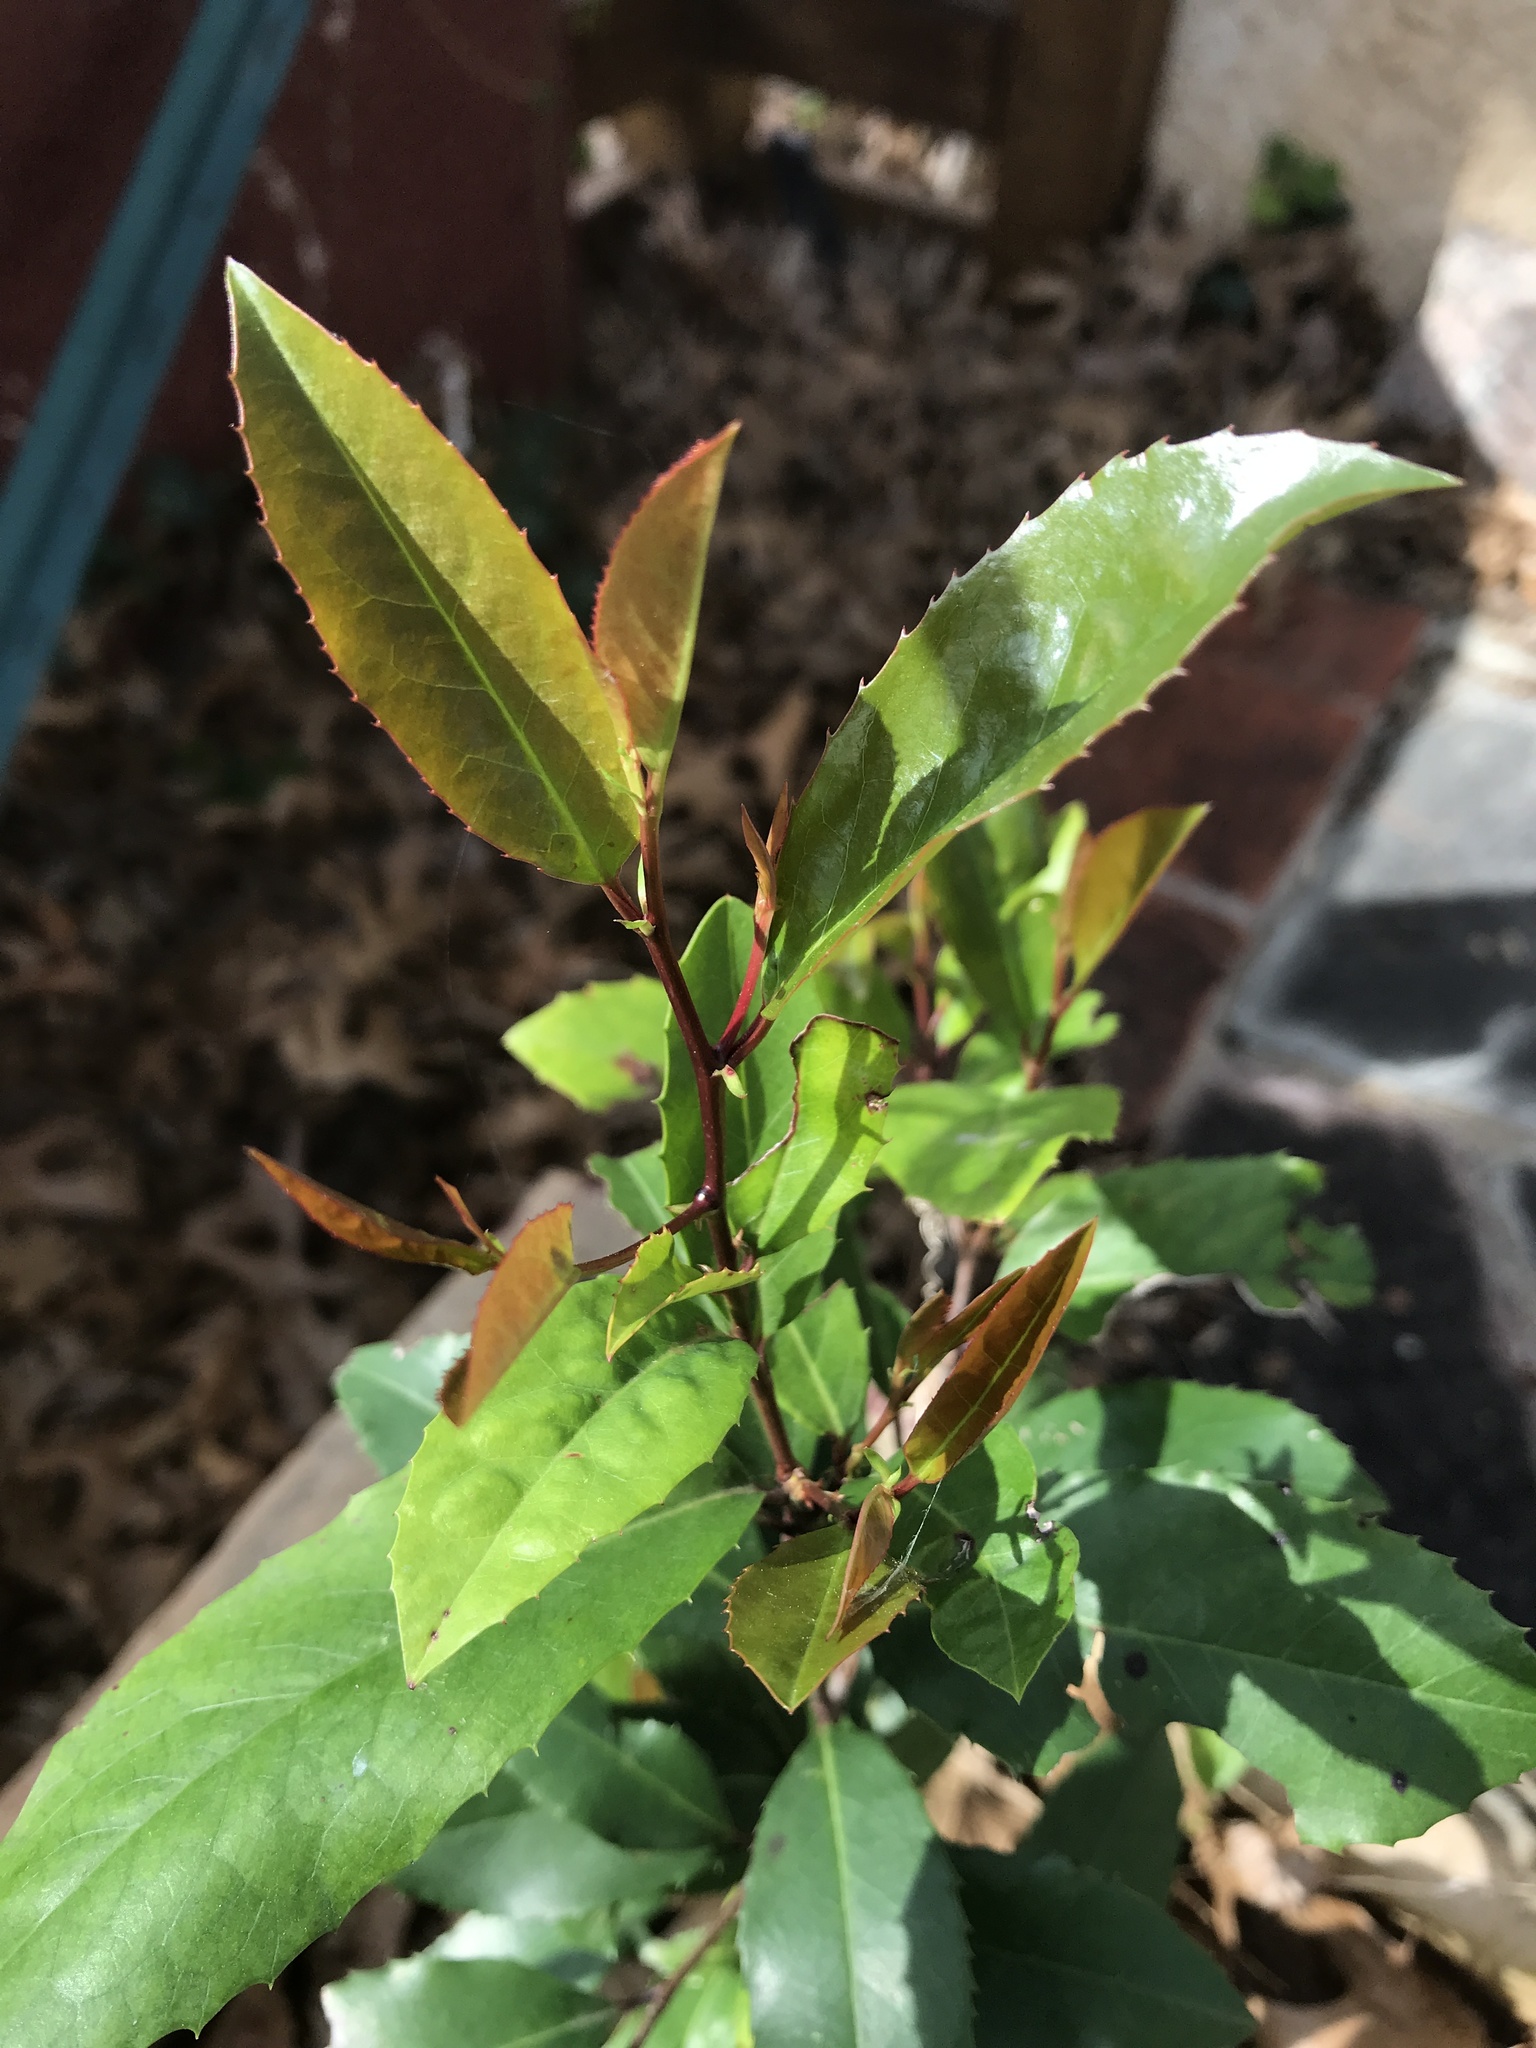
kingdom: Plantae
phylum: Tracheophyta
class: Magnoliopsida
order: Rosales
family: Rosaceae
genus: Prunus
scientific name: Prunus caroliniana
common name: Carolina laurel cherry
